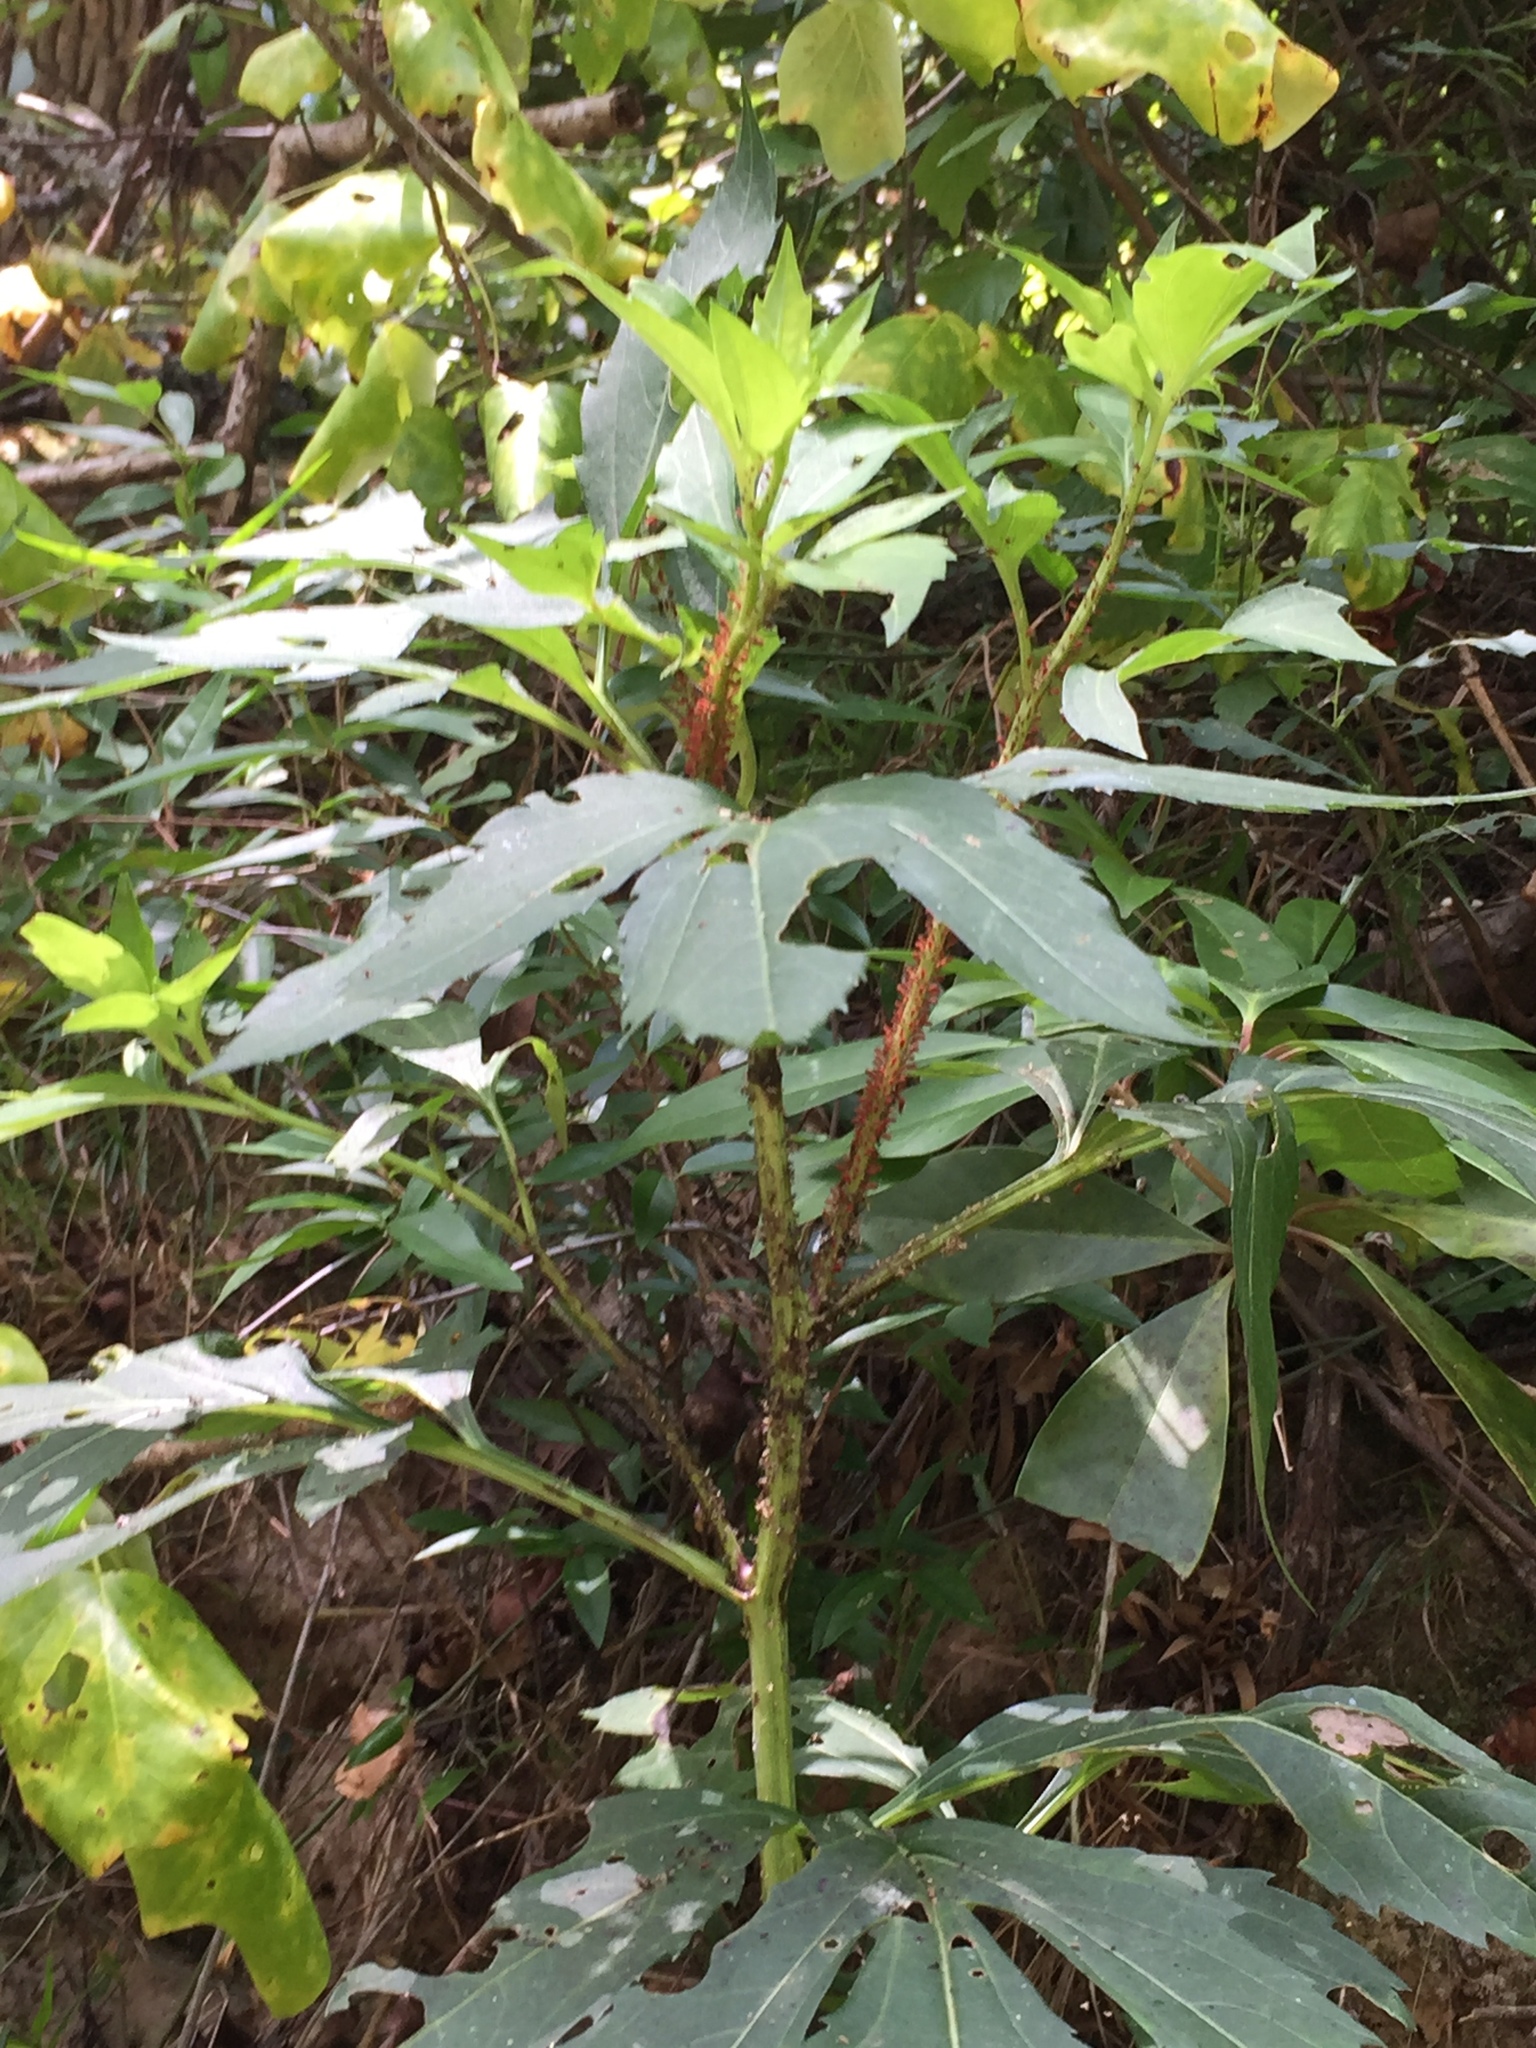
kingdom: Plantae
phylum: Tracheophyta
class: Magnoliopsida
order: Asterales
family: Asteraceae
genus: Rudbeckia
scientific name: Rudbeckia laciniata
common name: Coneflower
